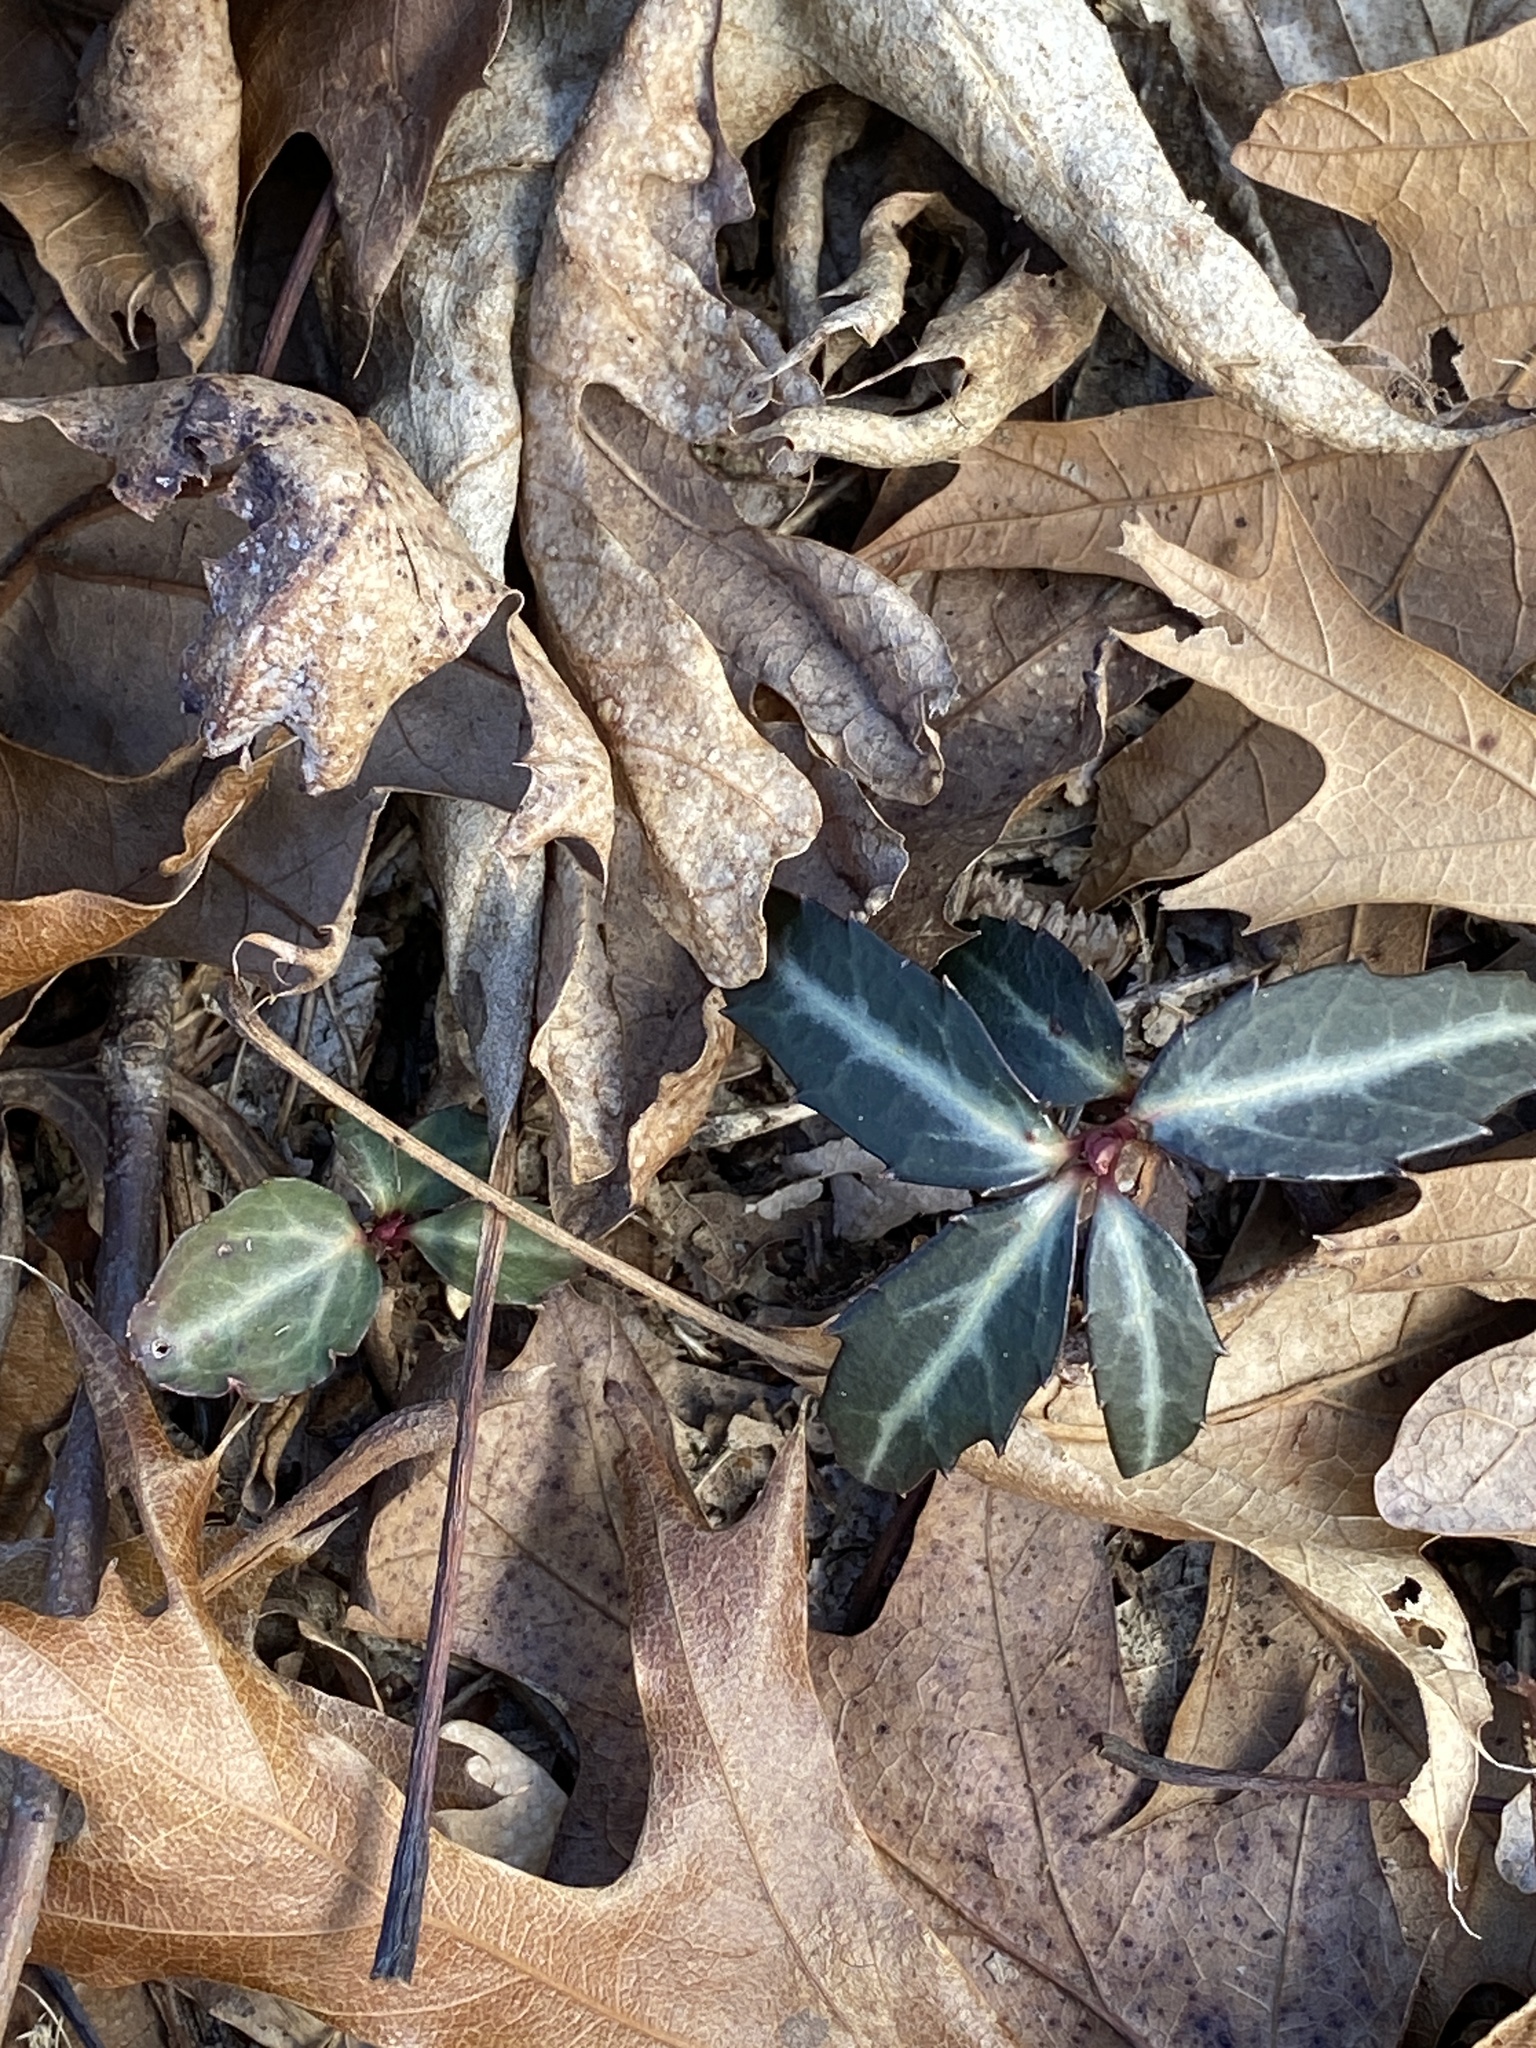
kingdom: Plantae
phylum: Tracheophyta
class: Magnoliopsida
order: Ericales
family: Ericaceae
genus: Chimaphila
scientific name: Chimaphila maculata
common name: Spotted pipsissewa
